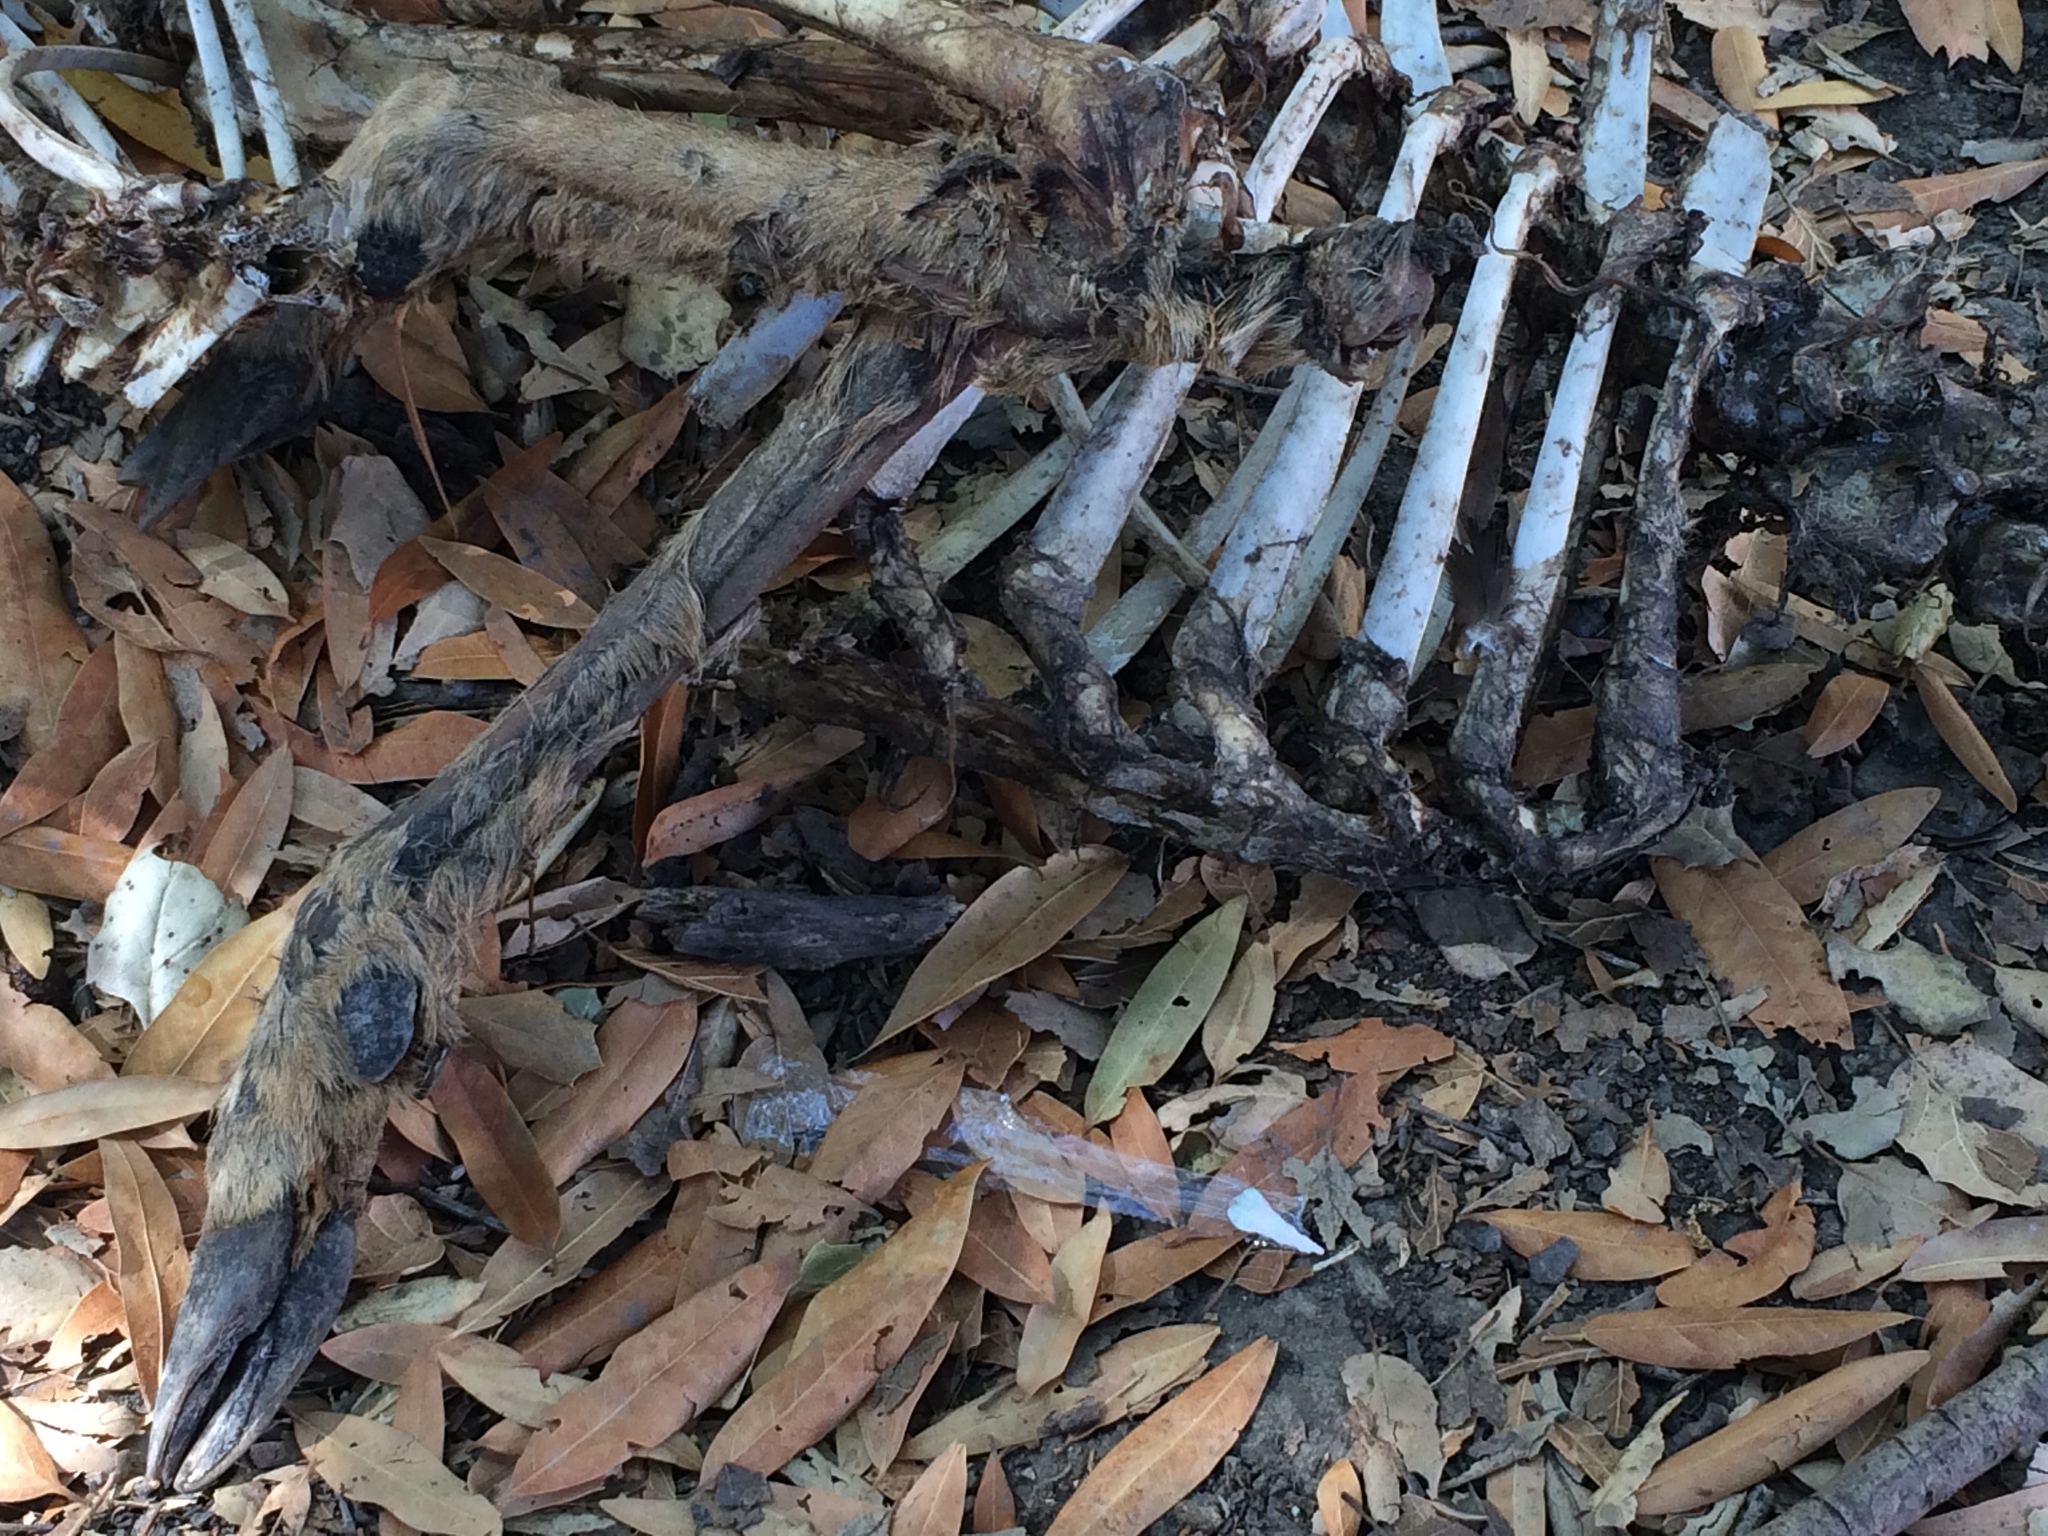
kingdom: Animalia
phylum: Chordata
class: Mammalia
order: Artiodactyla
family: Cervidae
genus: Odocoileus
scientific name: Odocoileus hemionus
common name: Mule deer
